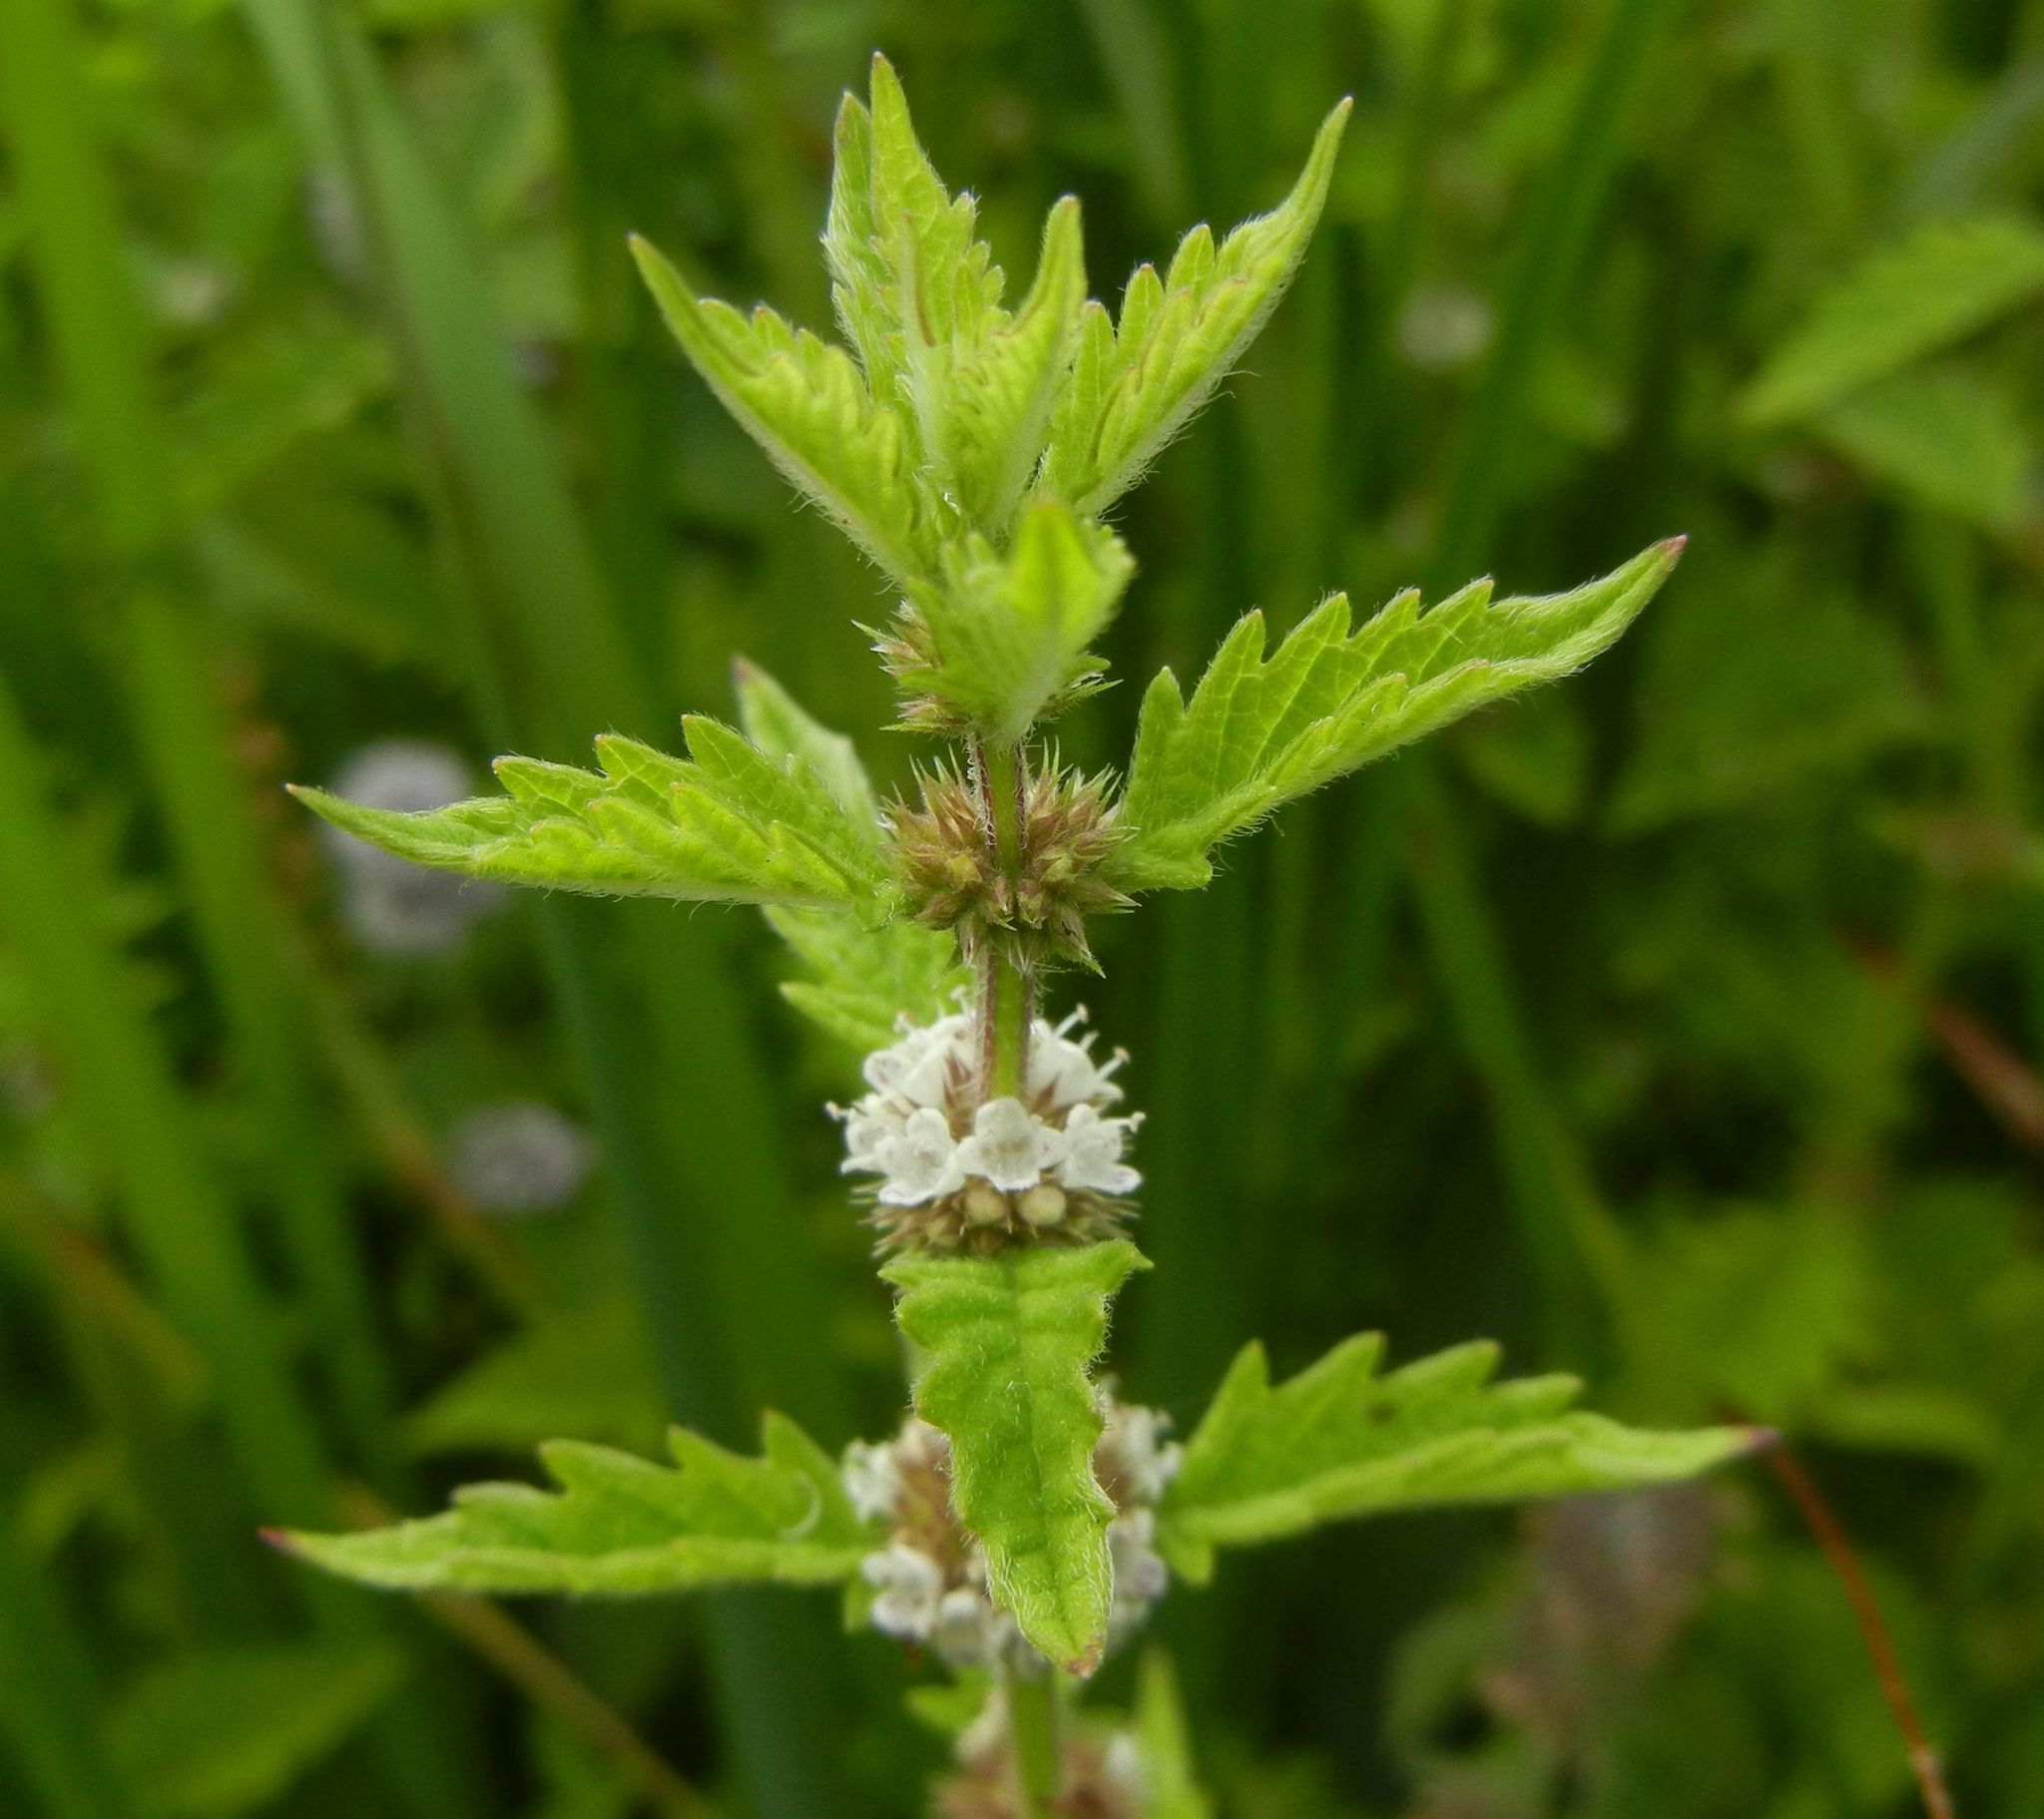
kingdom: Plantae
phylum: Tracheophyta
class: Magnoliopsida
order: Lamiales
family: Lamiaceae
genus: Lycopus
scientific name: Lycopus europaeus
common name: European bugleweed
